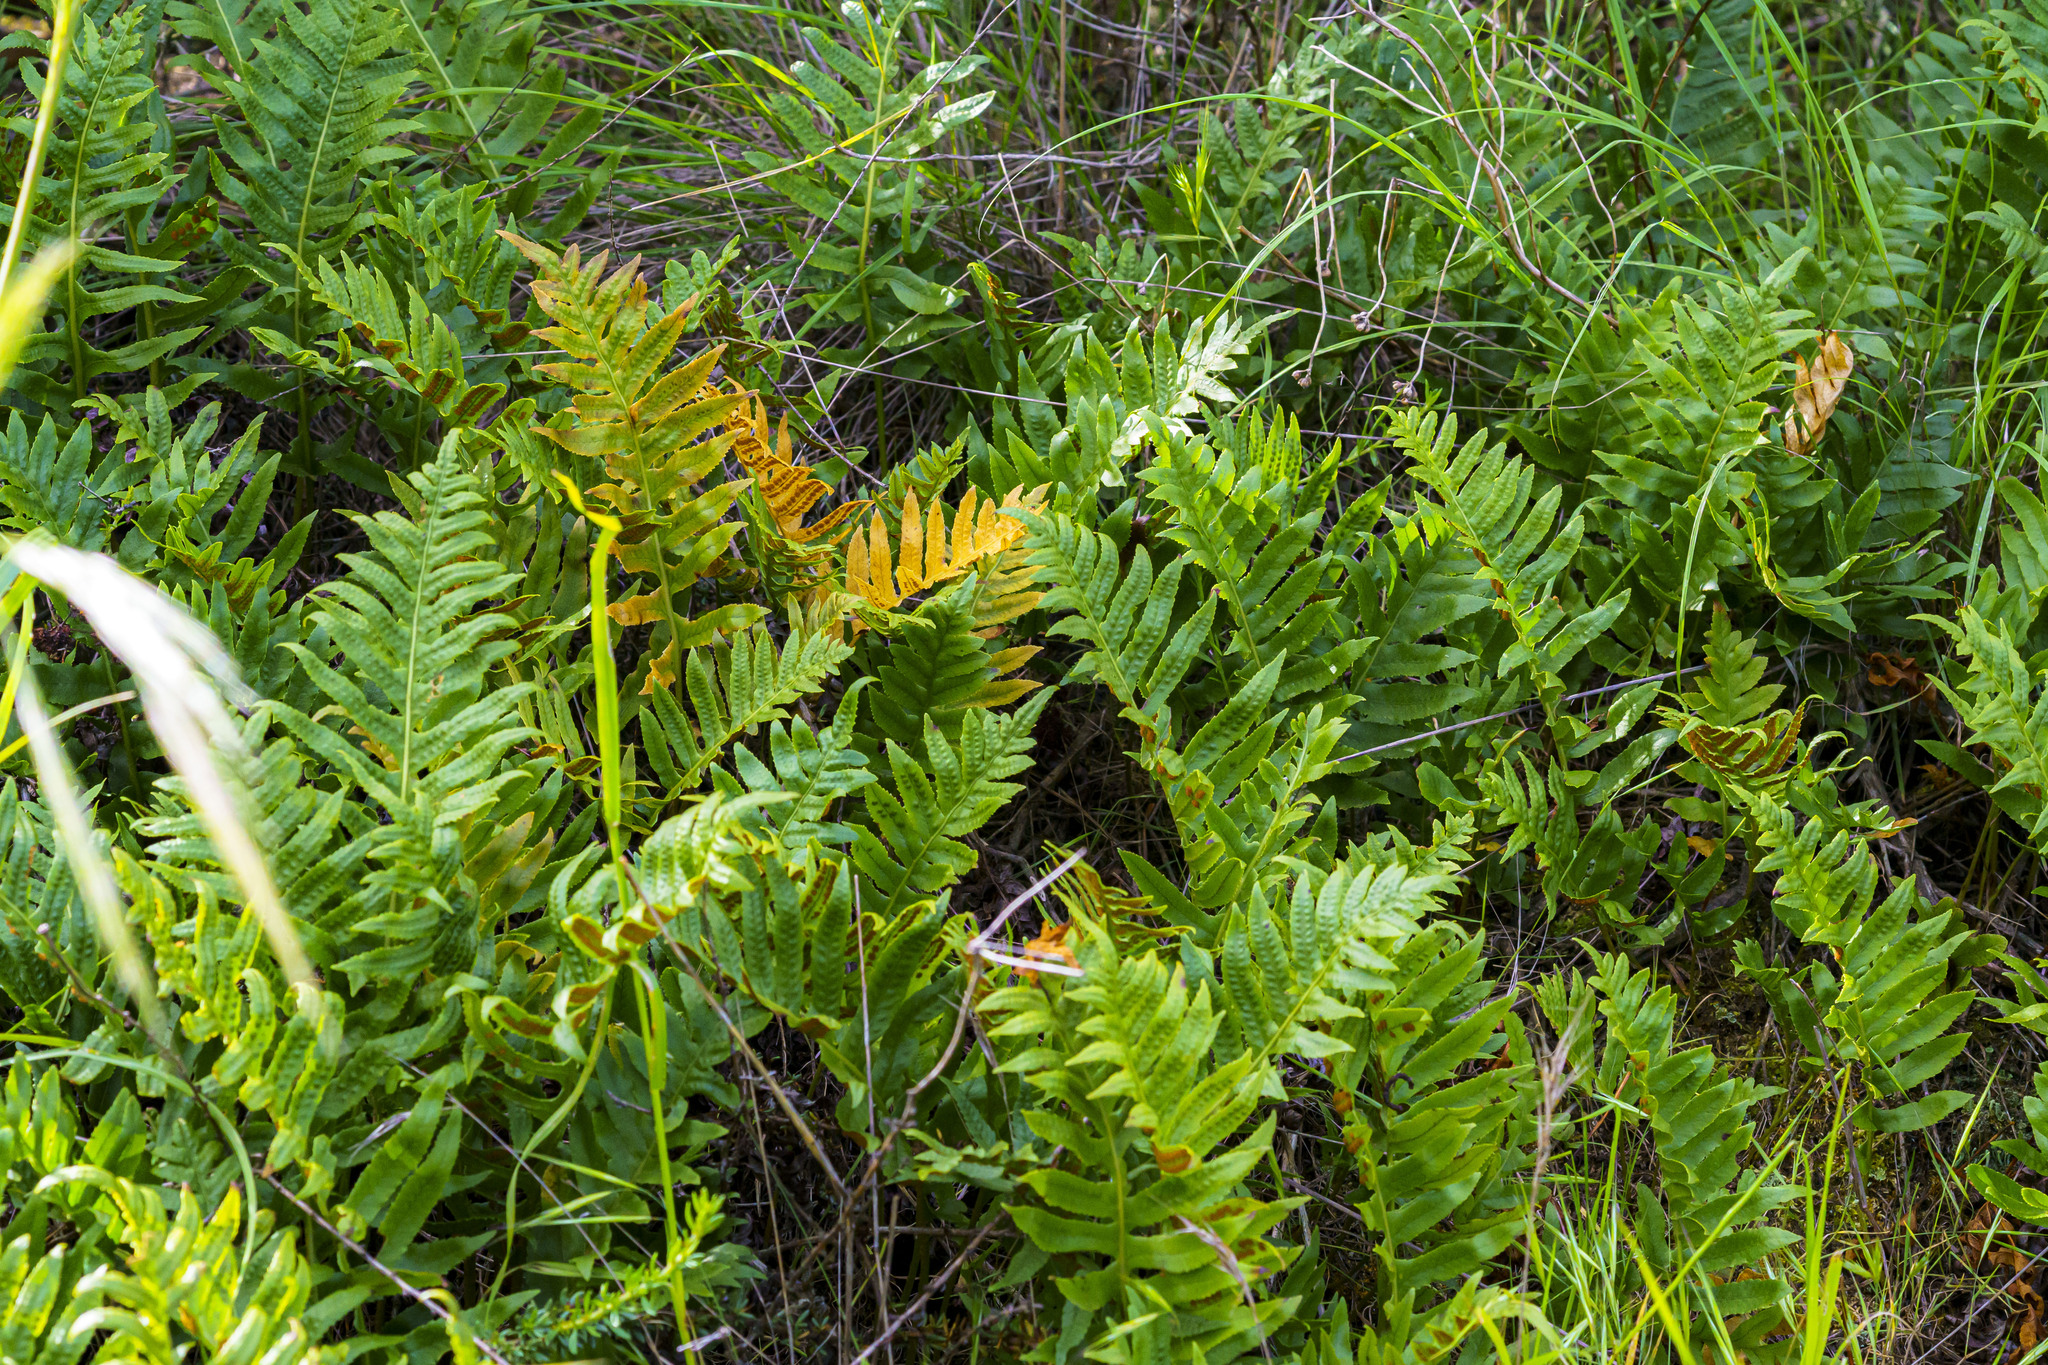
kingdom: Plantae
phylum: Tracheophyta
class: Polypodiopsida
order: Polypodiales
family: Polypodiaceae
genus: Polypodium
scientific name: Polypodium californicum
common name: California polypody
